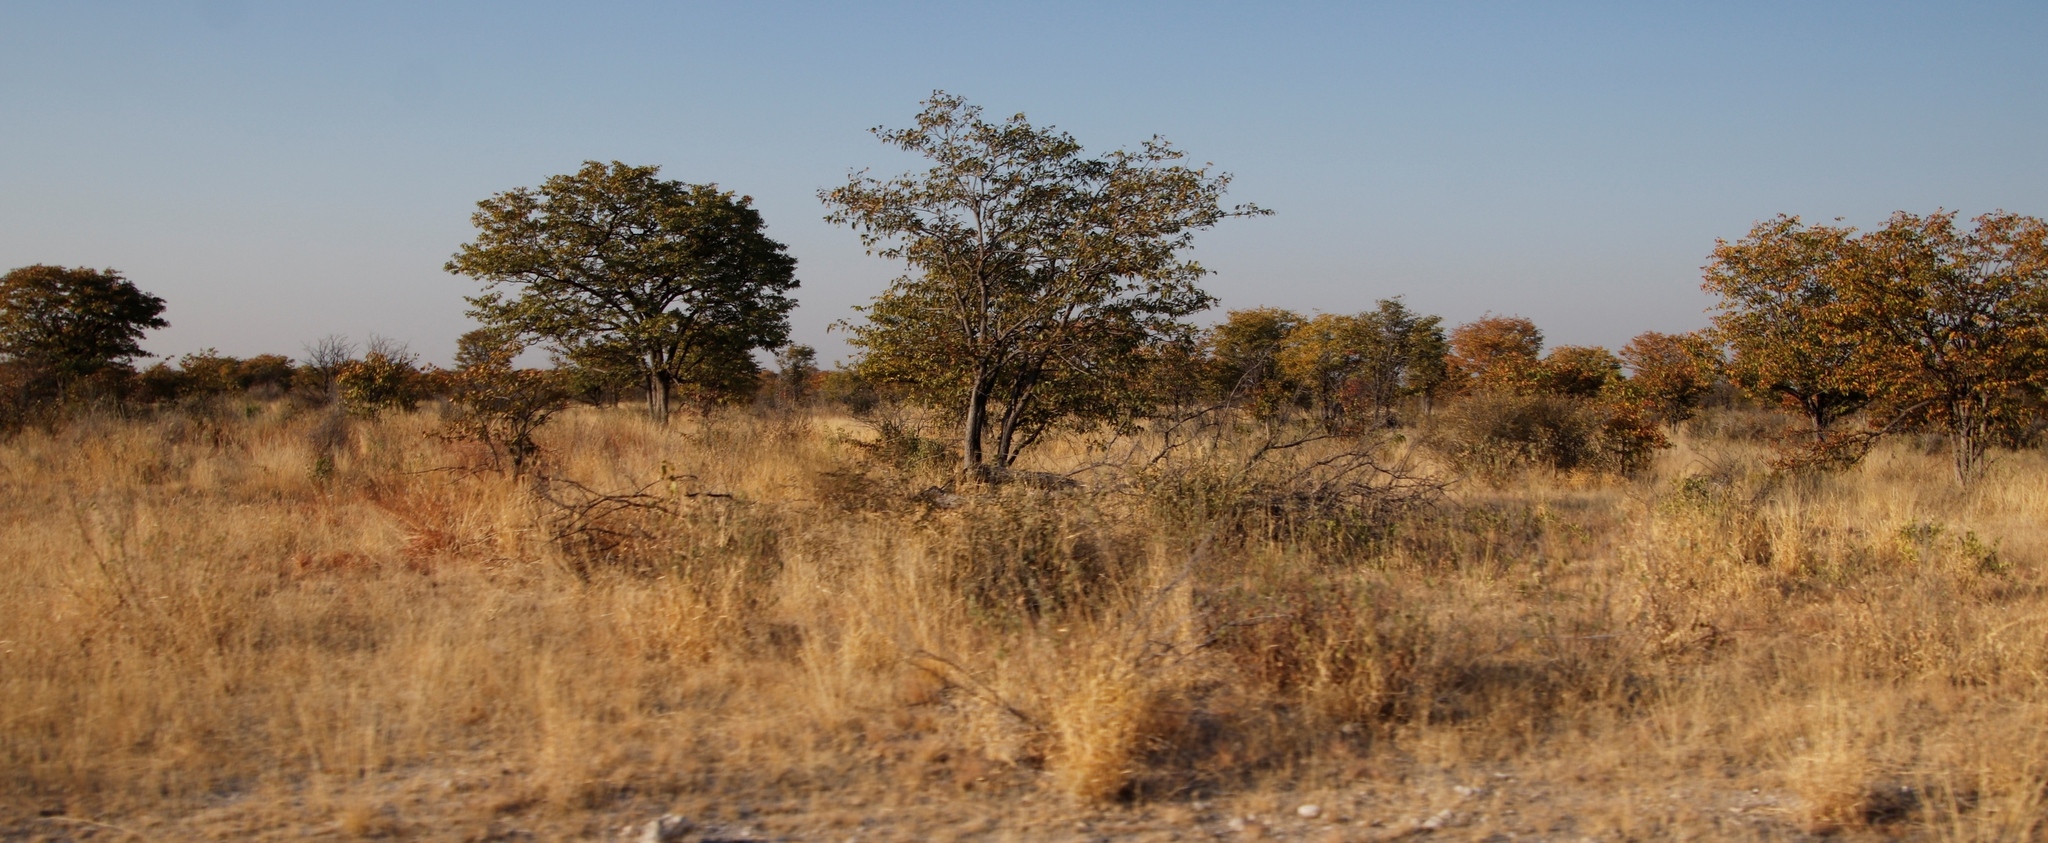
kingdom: Plantae
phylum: Tracheophyta
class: Magnoliopsida
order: Fabales
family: Fabaceae
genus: Colophospermum
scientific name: Colophospermum mopane
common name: Mopane
